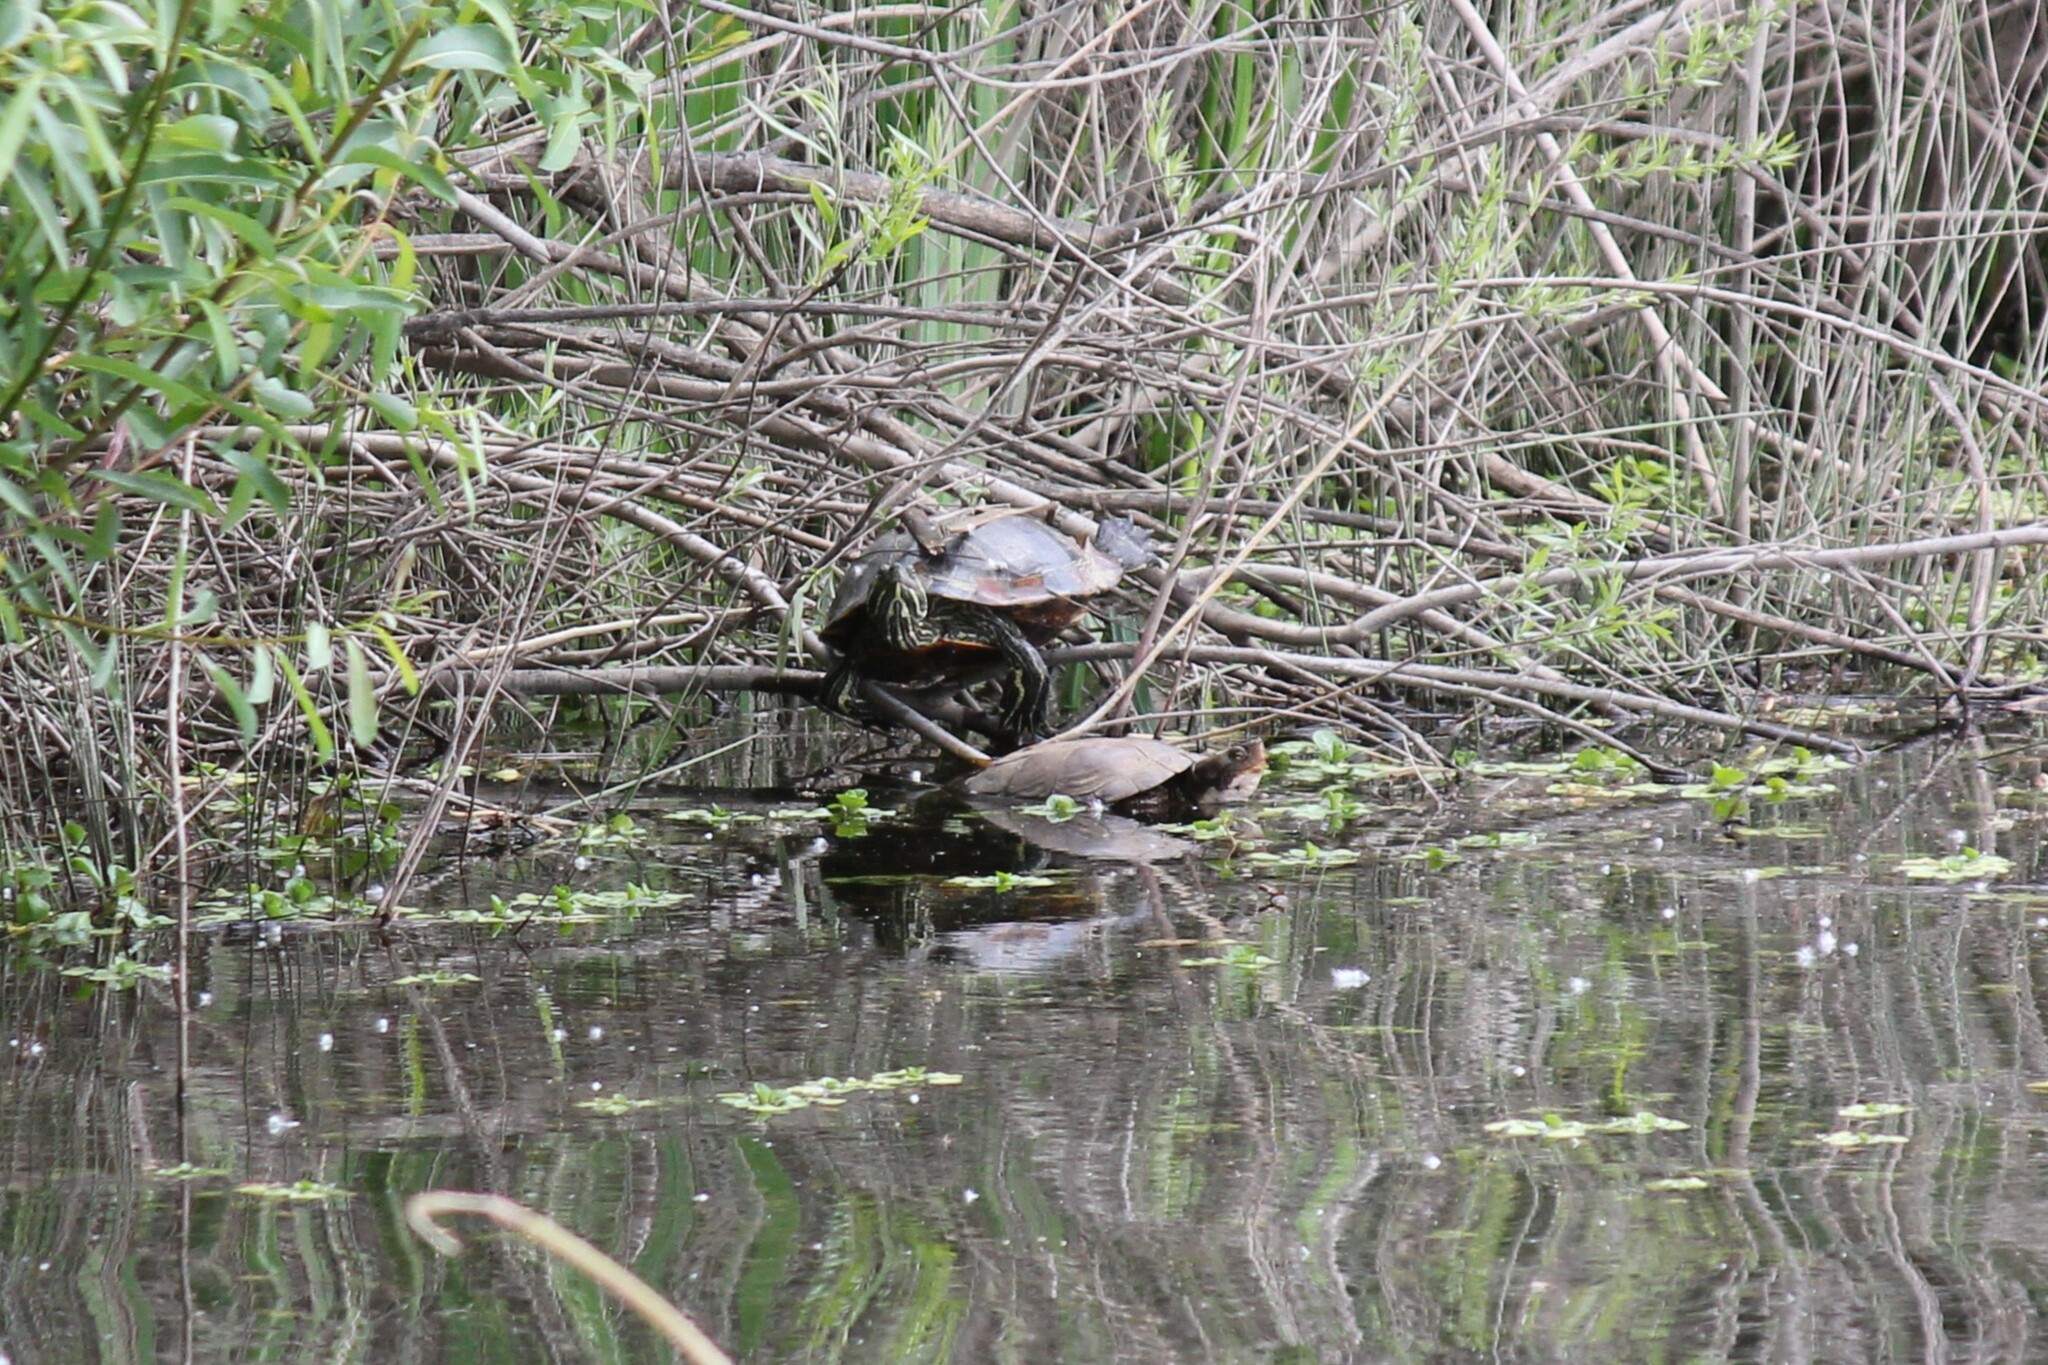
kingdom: Animalia
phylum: Chordata
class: Testudines
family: Emydidae
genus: Trachemys
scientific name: Trachemys scripta
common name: Slider
